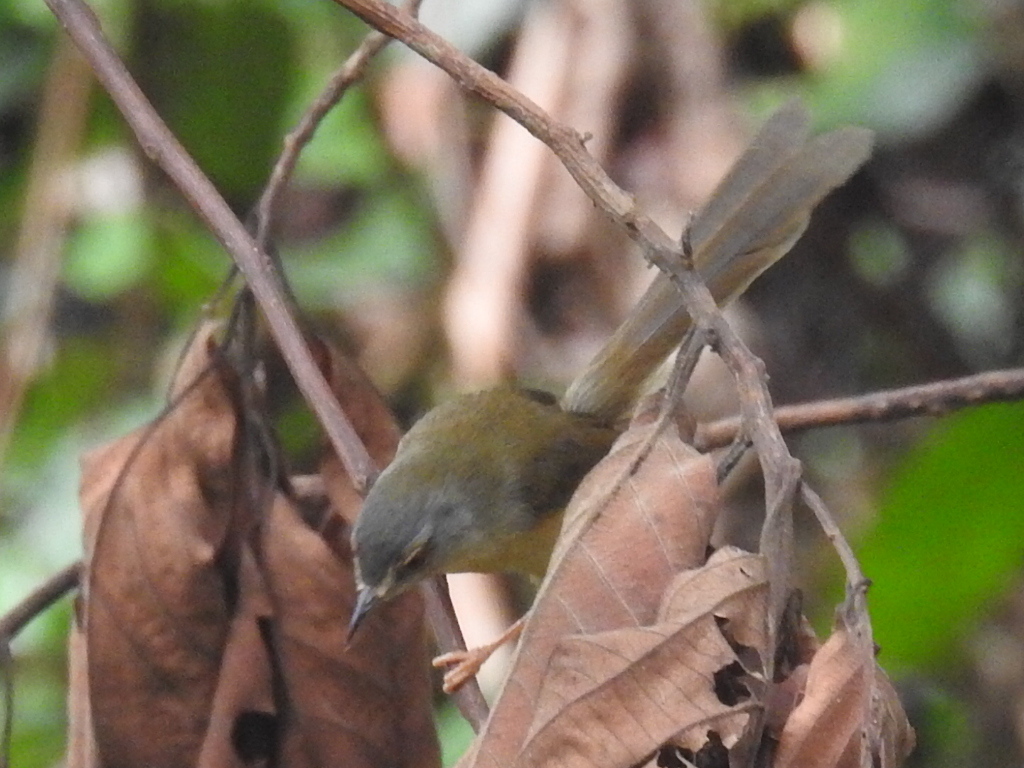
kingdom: Animalia
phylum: Chordata
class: Aves
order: Passeriformes
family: Cisticolidae
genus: Prinia
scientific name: Prinia flaviventris
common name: Yellow-bellied prinia
